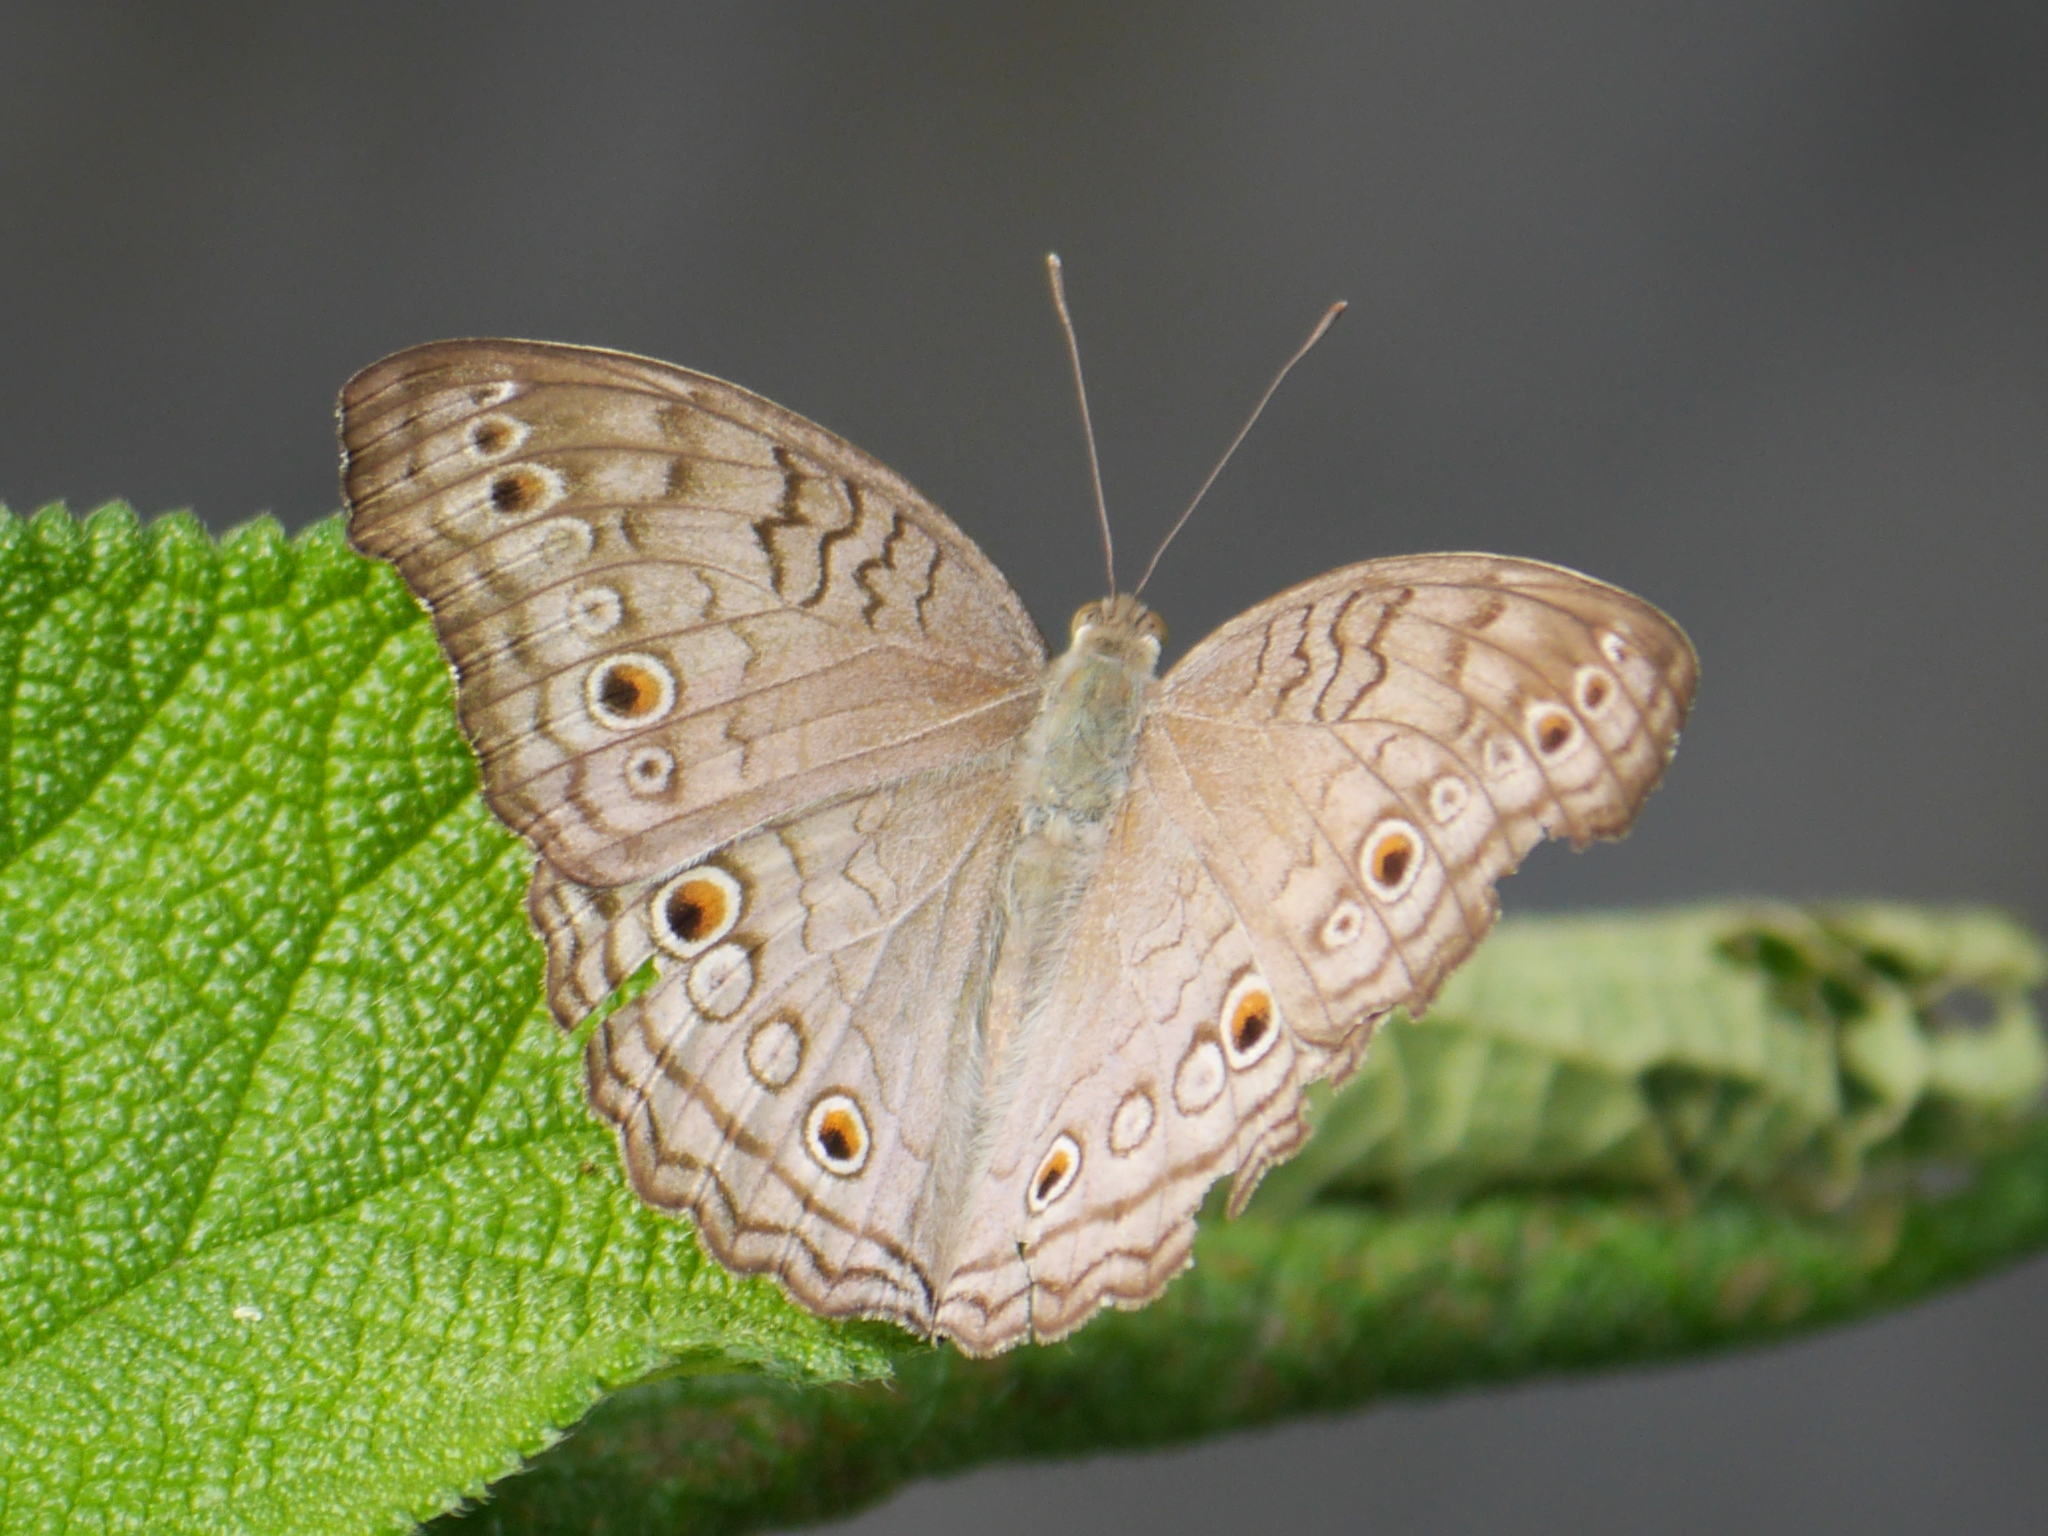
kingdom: Animalia
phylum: Arthropoda
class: Insecta
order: Lepidoptera
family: Nymphalidae
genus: Junonia
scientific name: Junonia atlites
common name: Grey pansy
